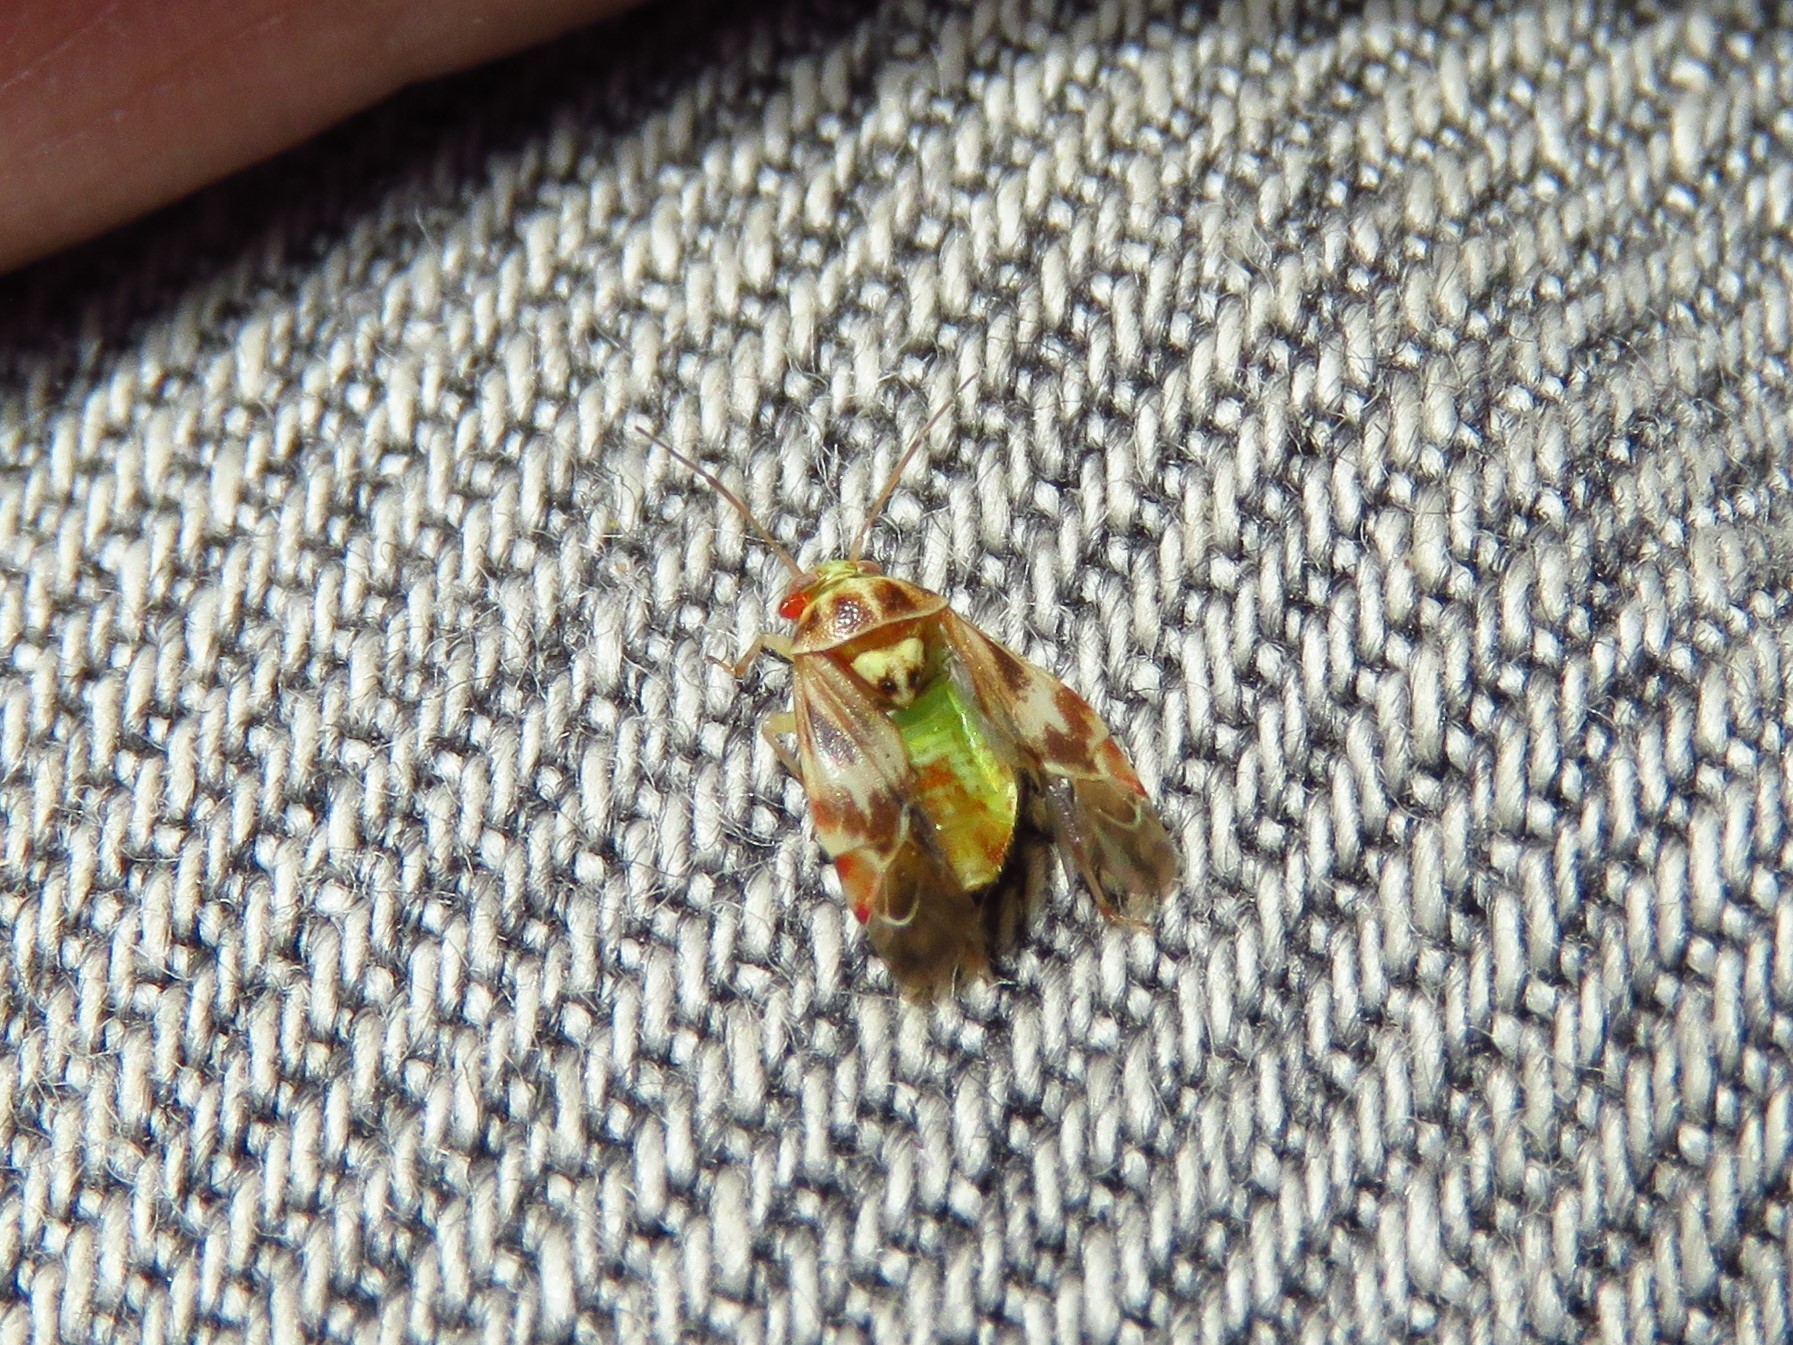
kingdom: Animalia
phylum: Arthropoda
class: Insecta
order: Hemiptera
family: Miridae
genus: Tropidosteptes
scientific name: Tropidosteptes quercicola
